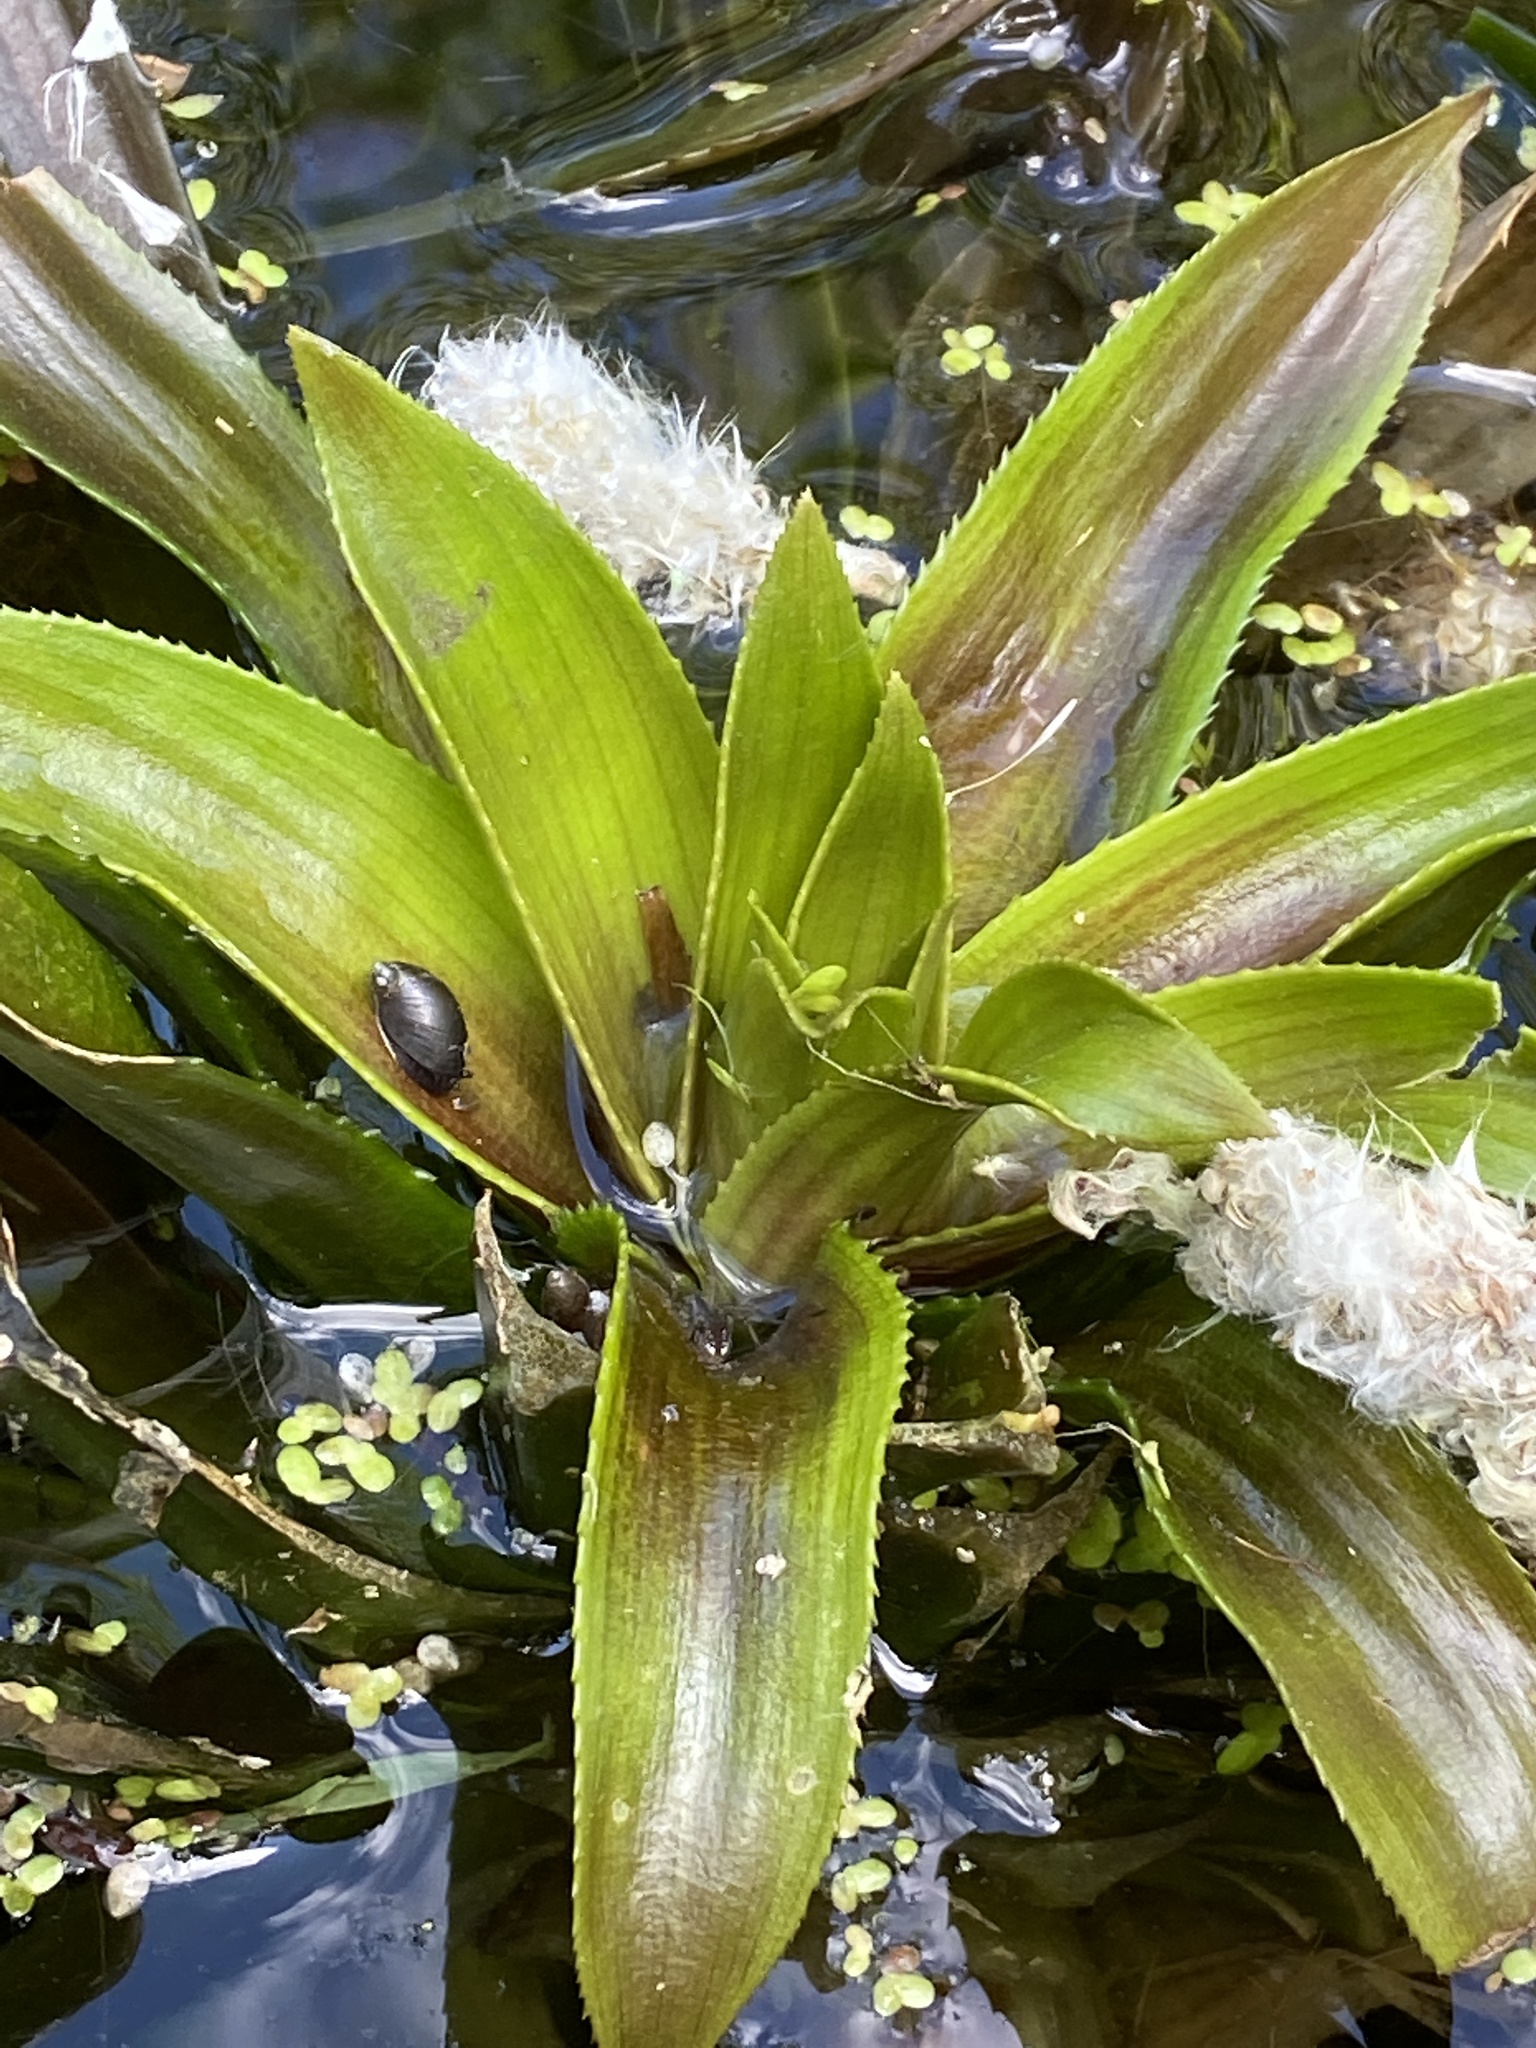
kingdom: Plantae
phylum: Tracheophyta
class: Liliopsida
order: Alismatales
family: Hydrocharitaceae
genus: Stratiotes
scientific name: Stratiotes aloides
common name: Water-soldier
